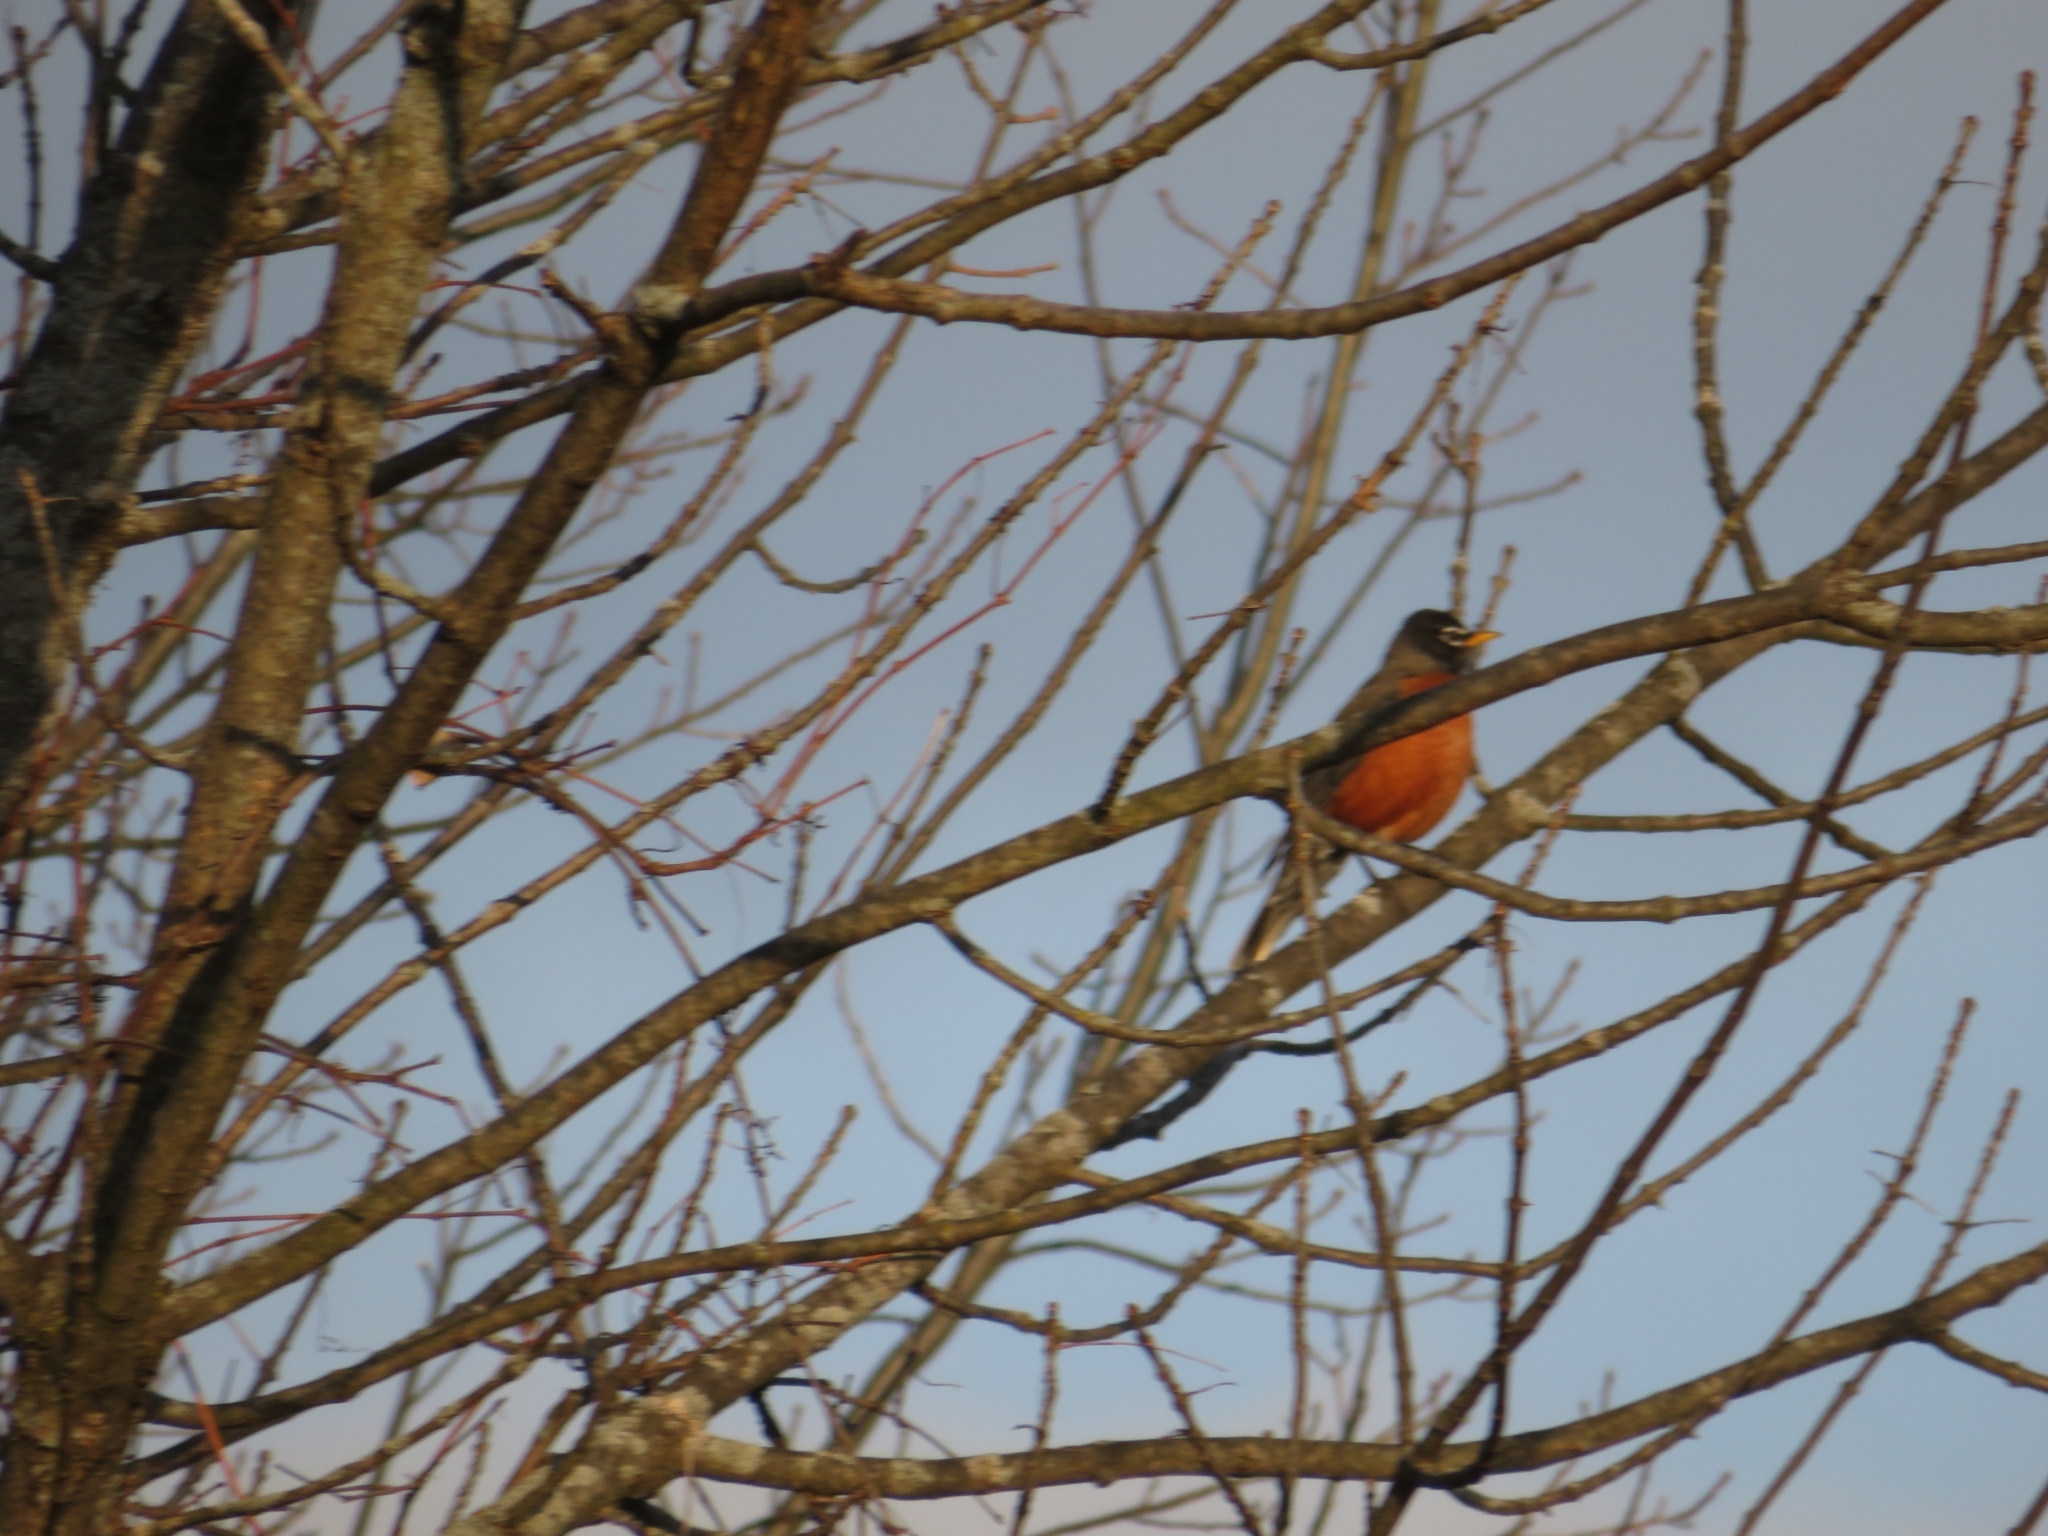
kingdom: Animalia
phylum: Chordata
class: Aves
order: Passeriformes
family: Turdidae
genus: Turdus
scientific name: Turdus migratorius
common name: American robin
